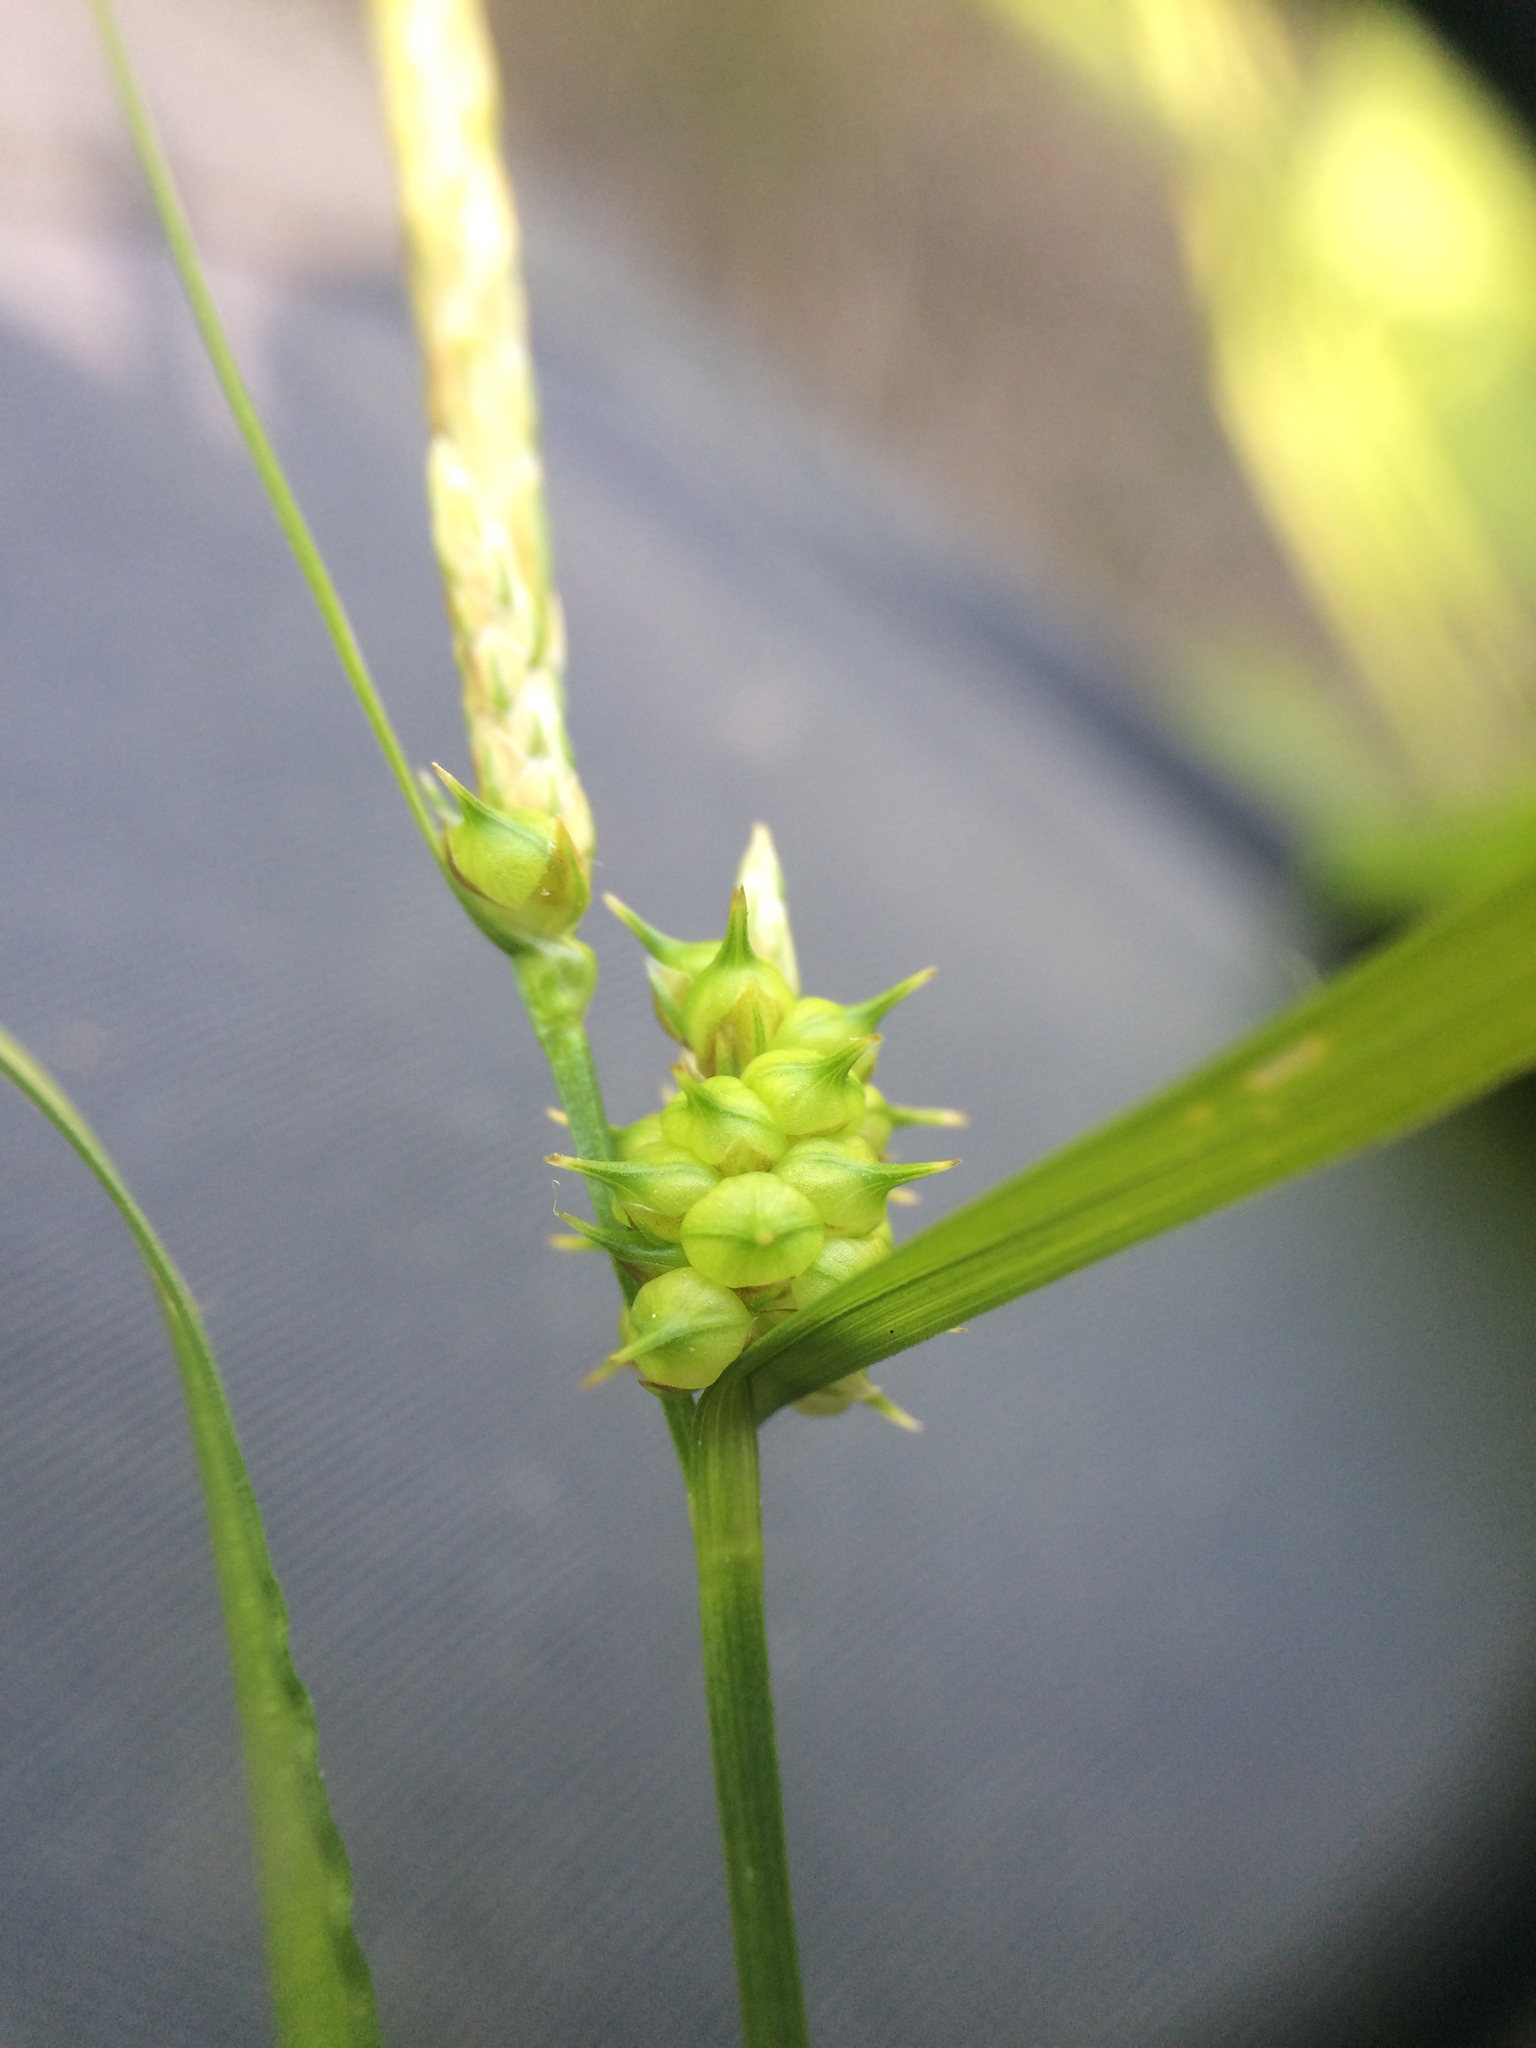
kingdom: Plantae
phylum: Tracheophyta
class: Liliopsida
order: Poales
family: Cyperaceae
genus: Carex
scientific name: Carex subviridula
